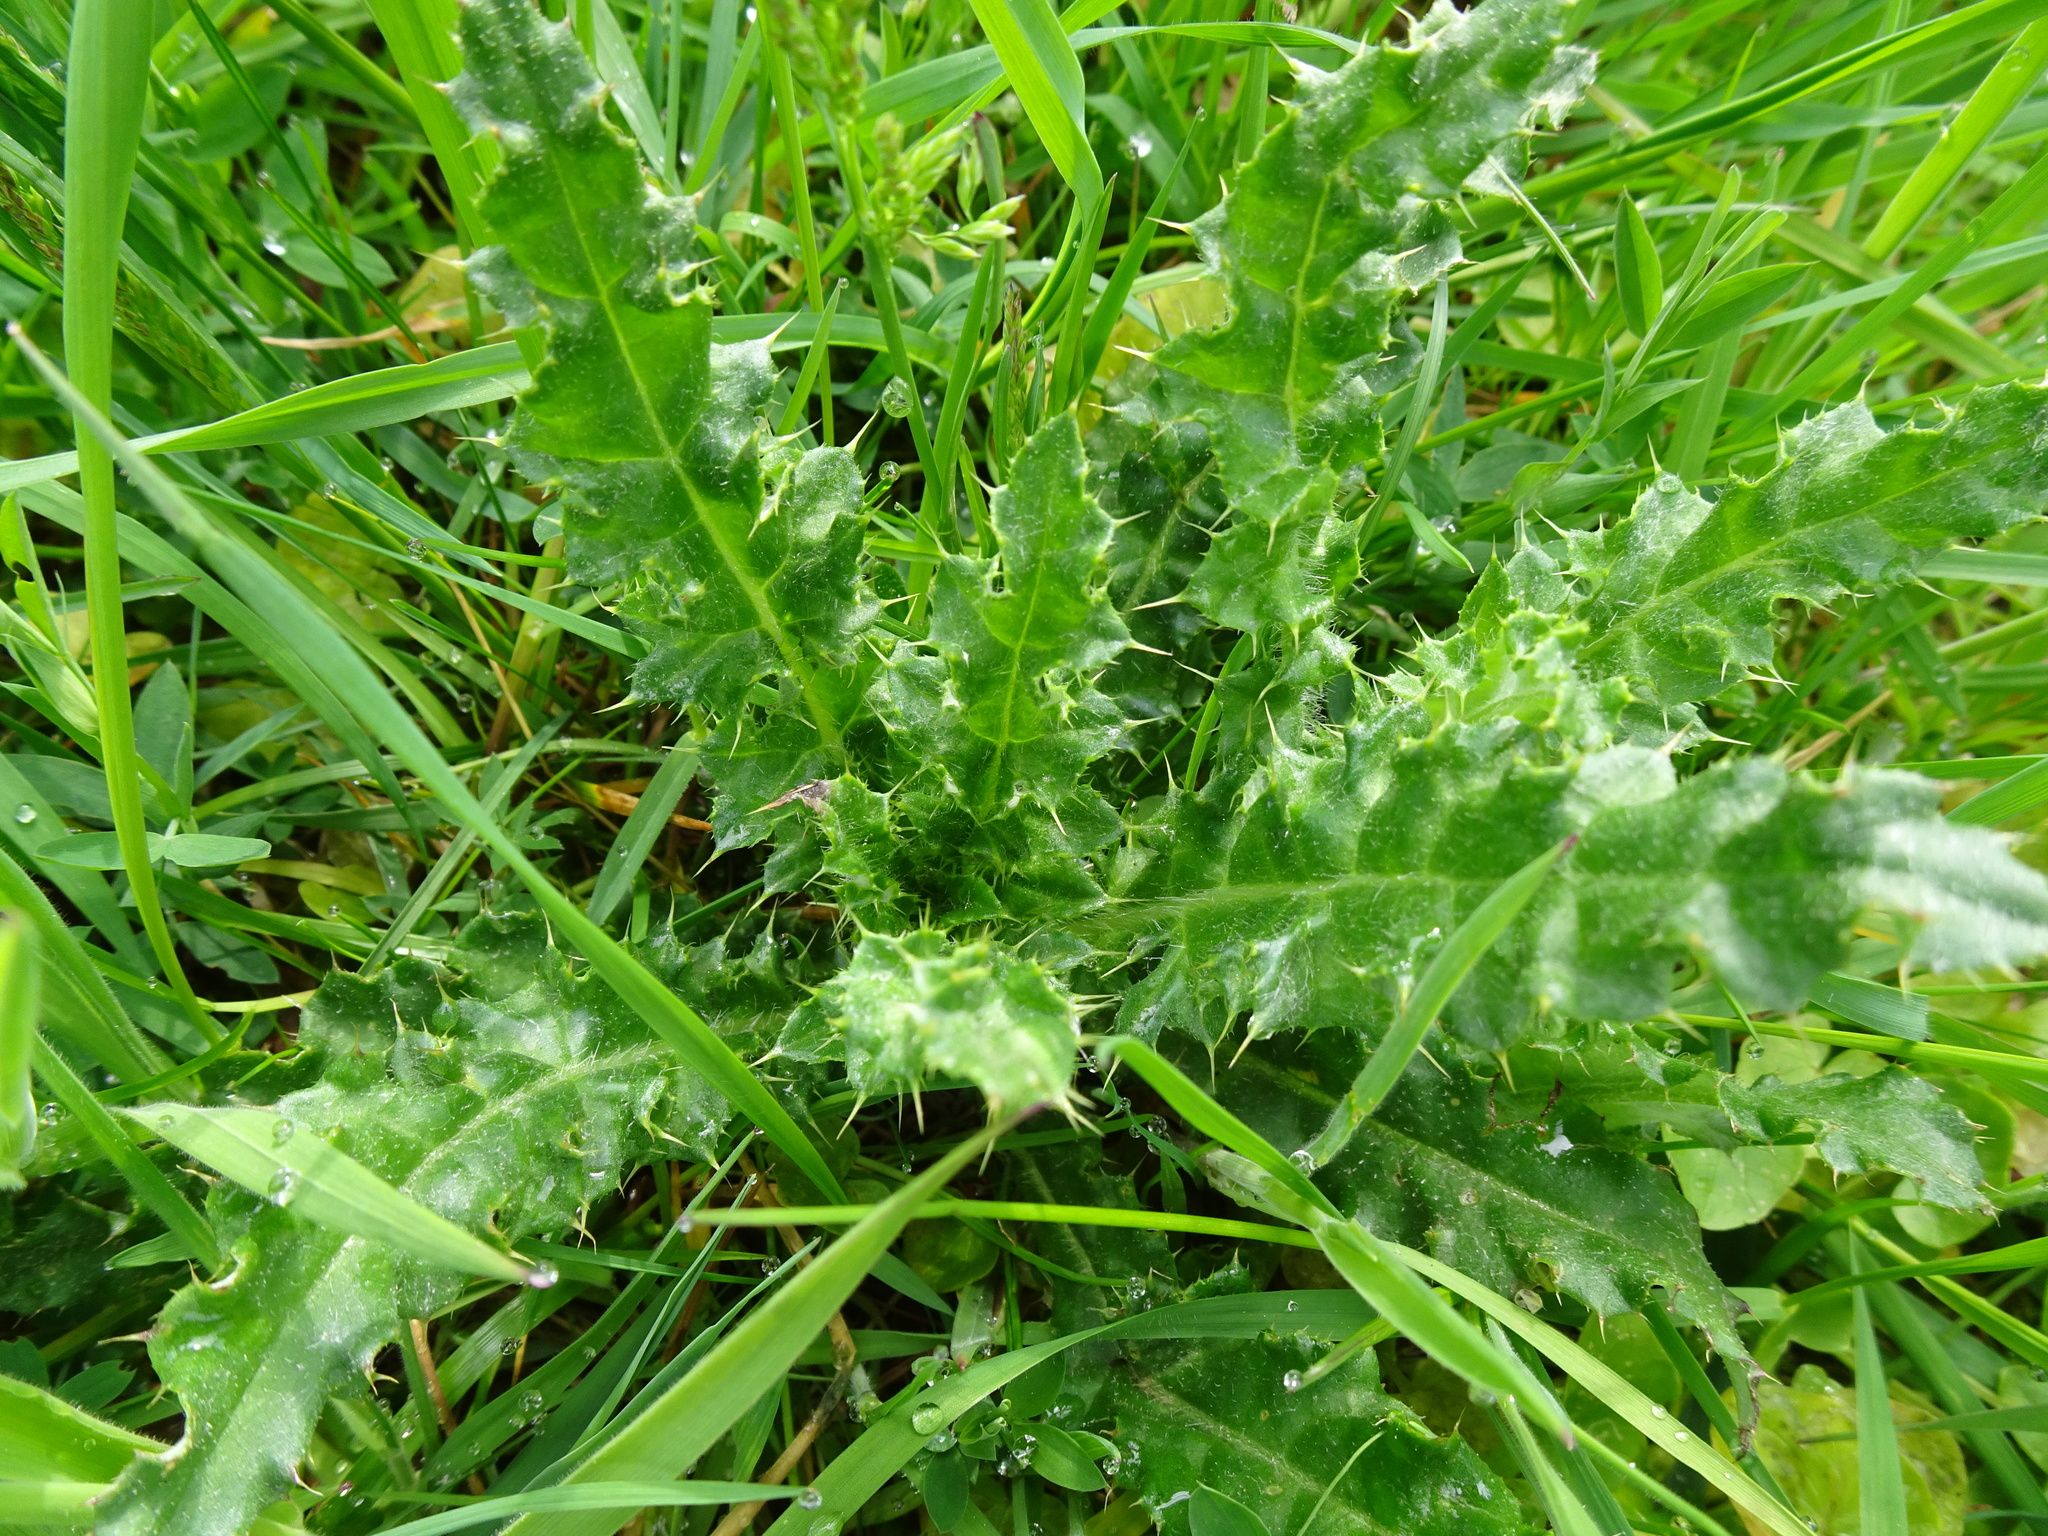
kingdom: Plantae
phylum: Tracheophyta
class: Magnoliopsida
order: Asterales
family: Asteraceae
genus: Cirsium
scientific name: Cirsium arvense
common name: Creeping thistle
